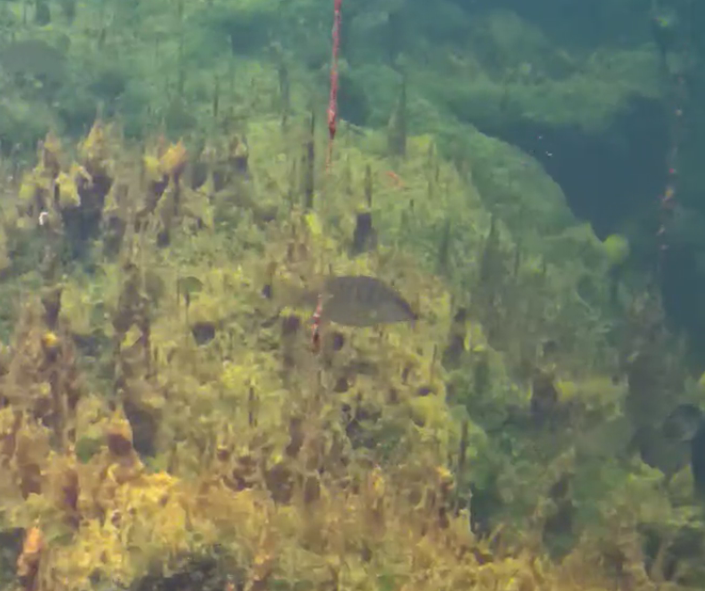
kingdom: Animalia
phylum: Chordata
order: Perciformes
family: Lutjanidae
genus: Lutjanus
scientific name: Lutjanus apodus
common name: Schoolmaster
